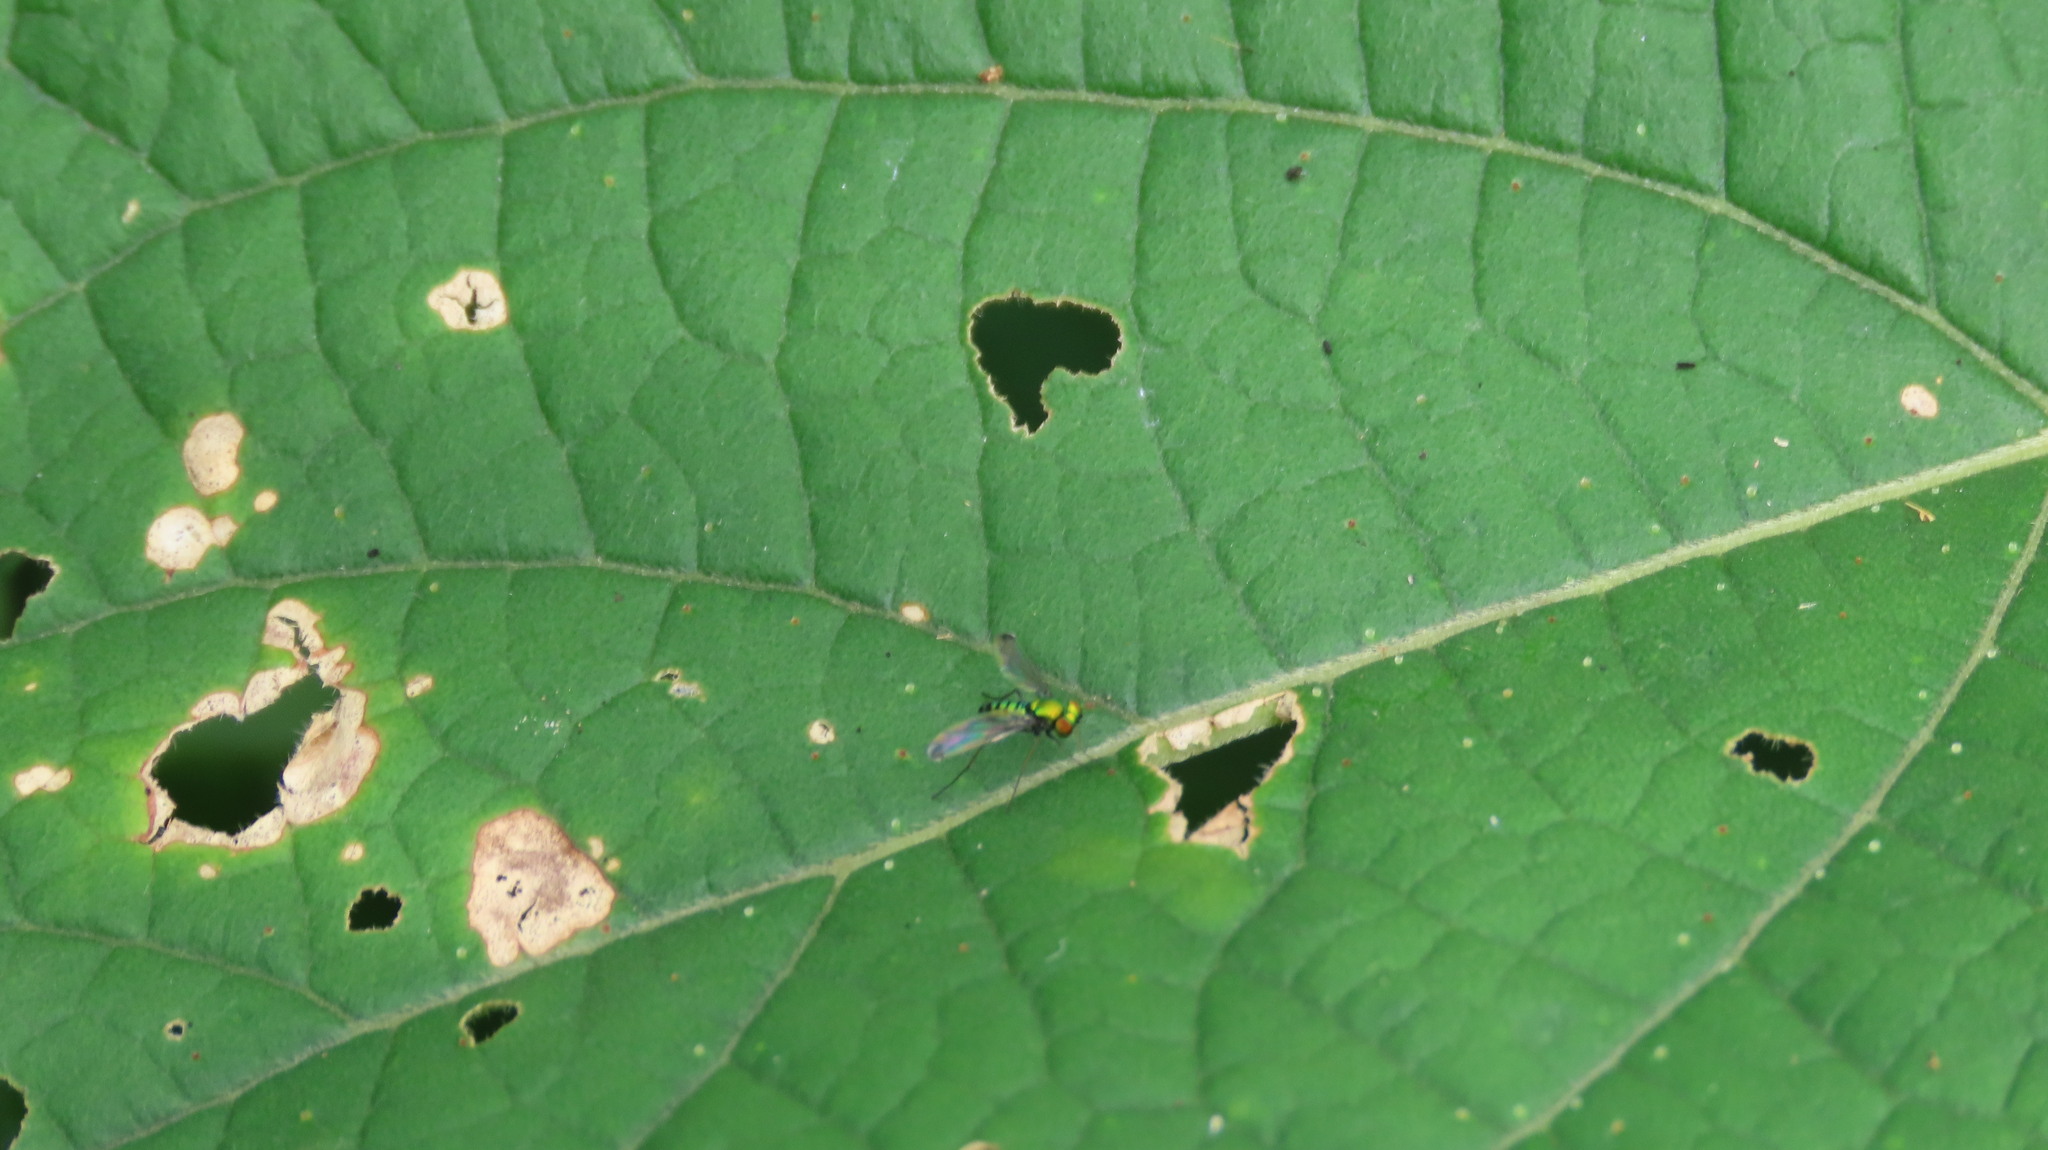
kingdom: Animalia
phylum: Arthropoda
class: Insecta
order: Diptera
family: Dolichopodidae
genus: Krakatauia
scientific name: Krakatauia
